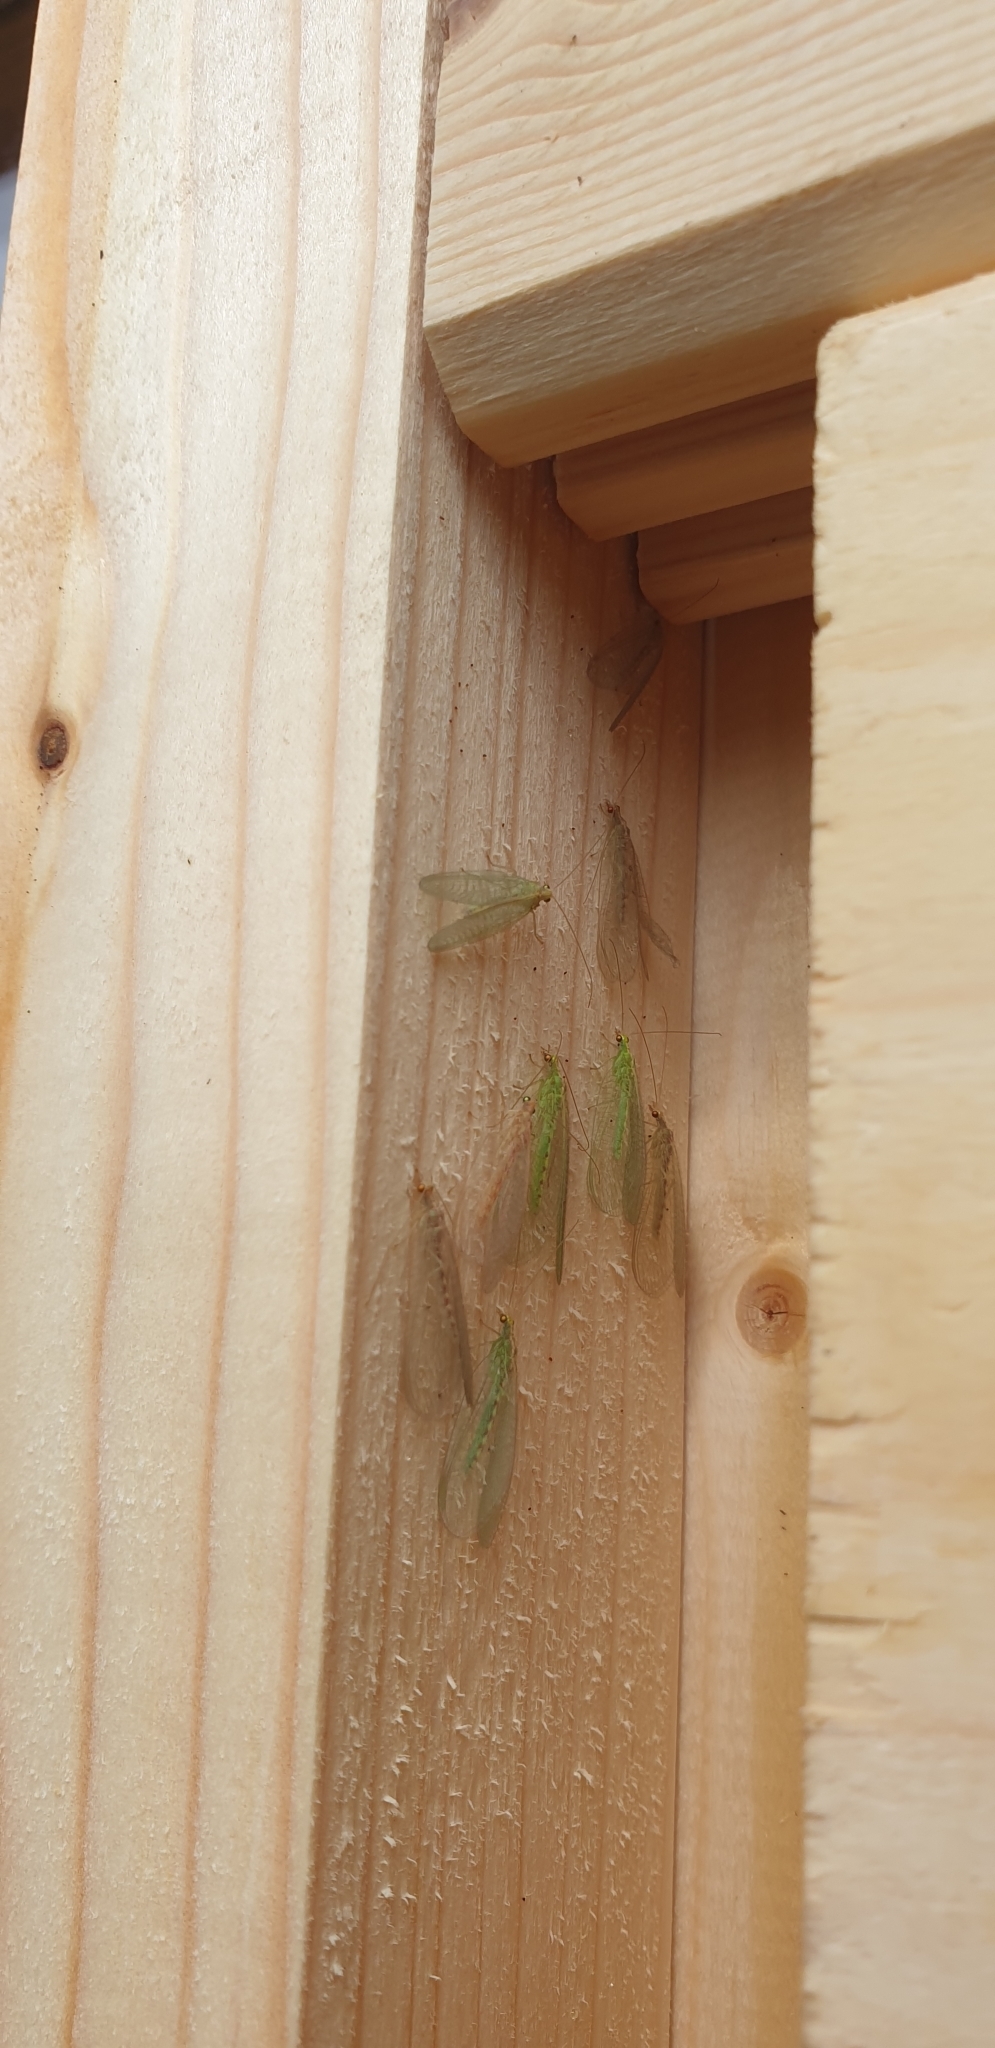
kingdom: Animalia
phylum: Arthropoda
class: Insecta
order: Neuroptera
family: Chrysopidae
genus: Chrysoperla
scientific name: Chrysoperla
